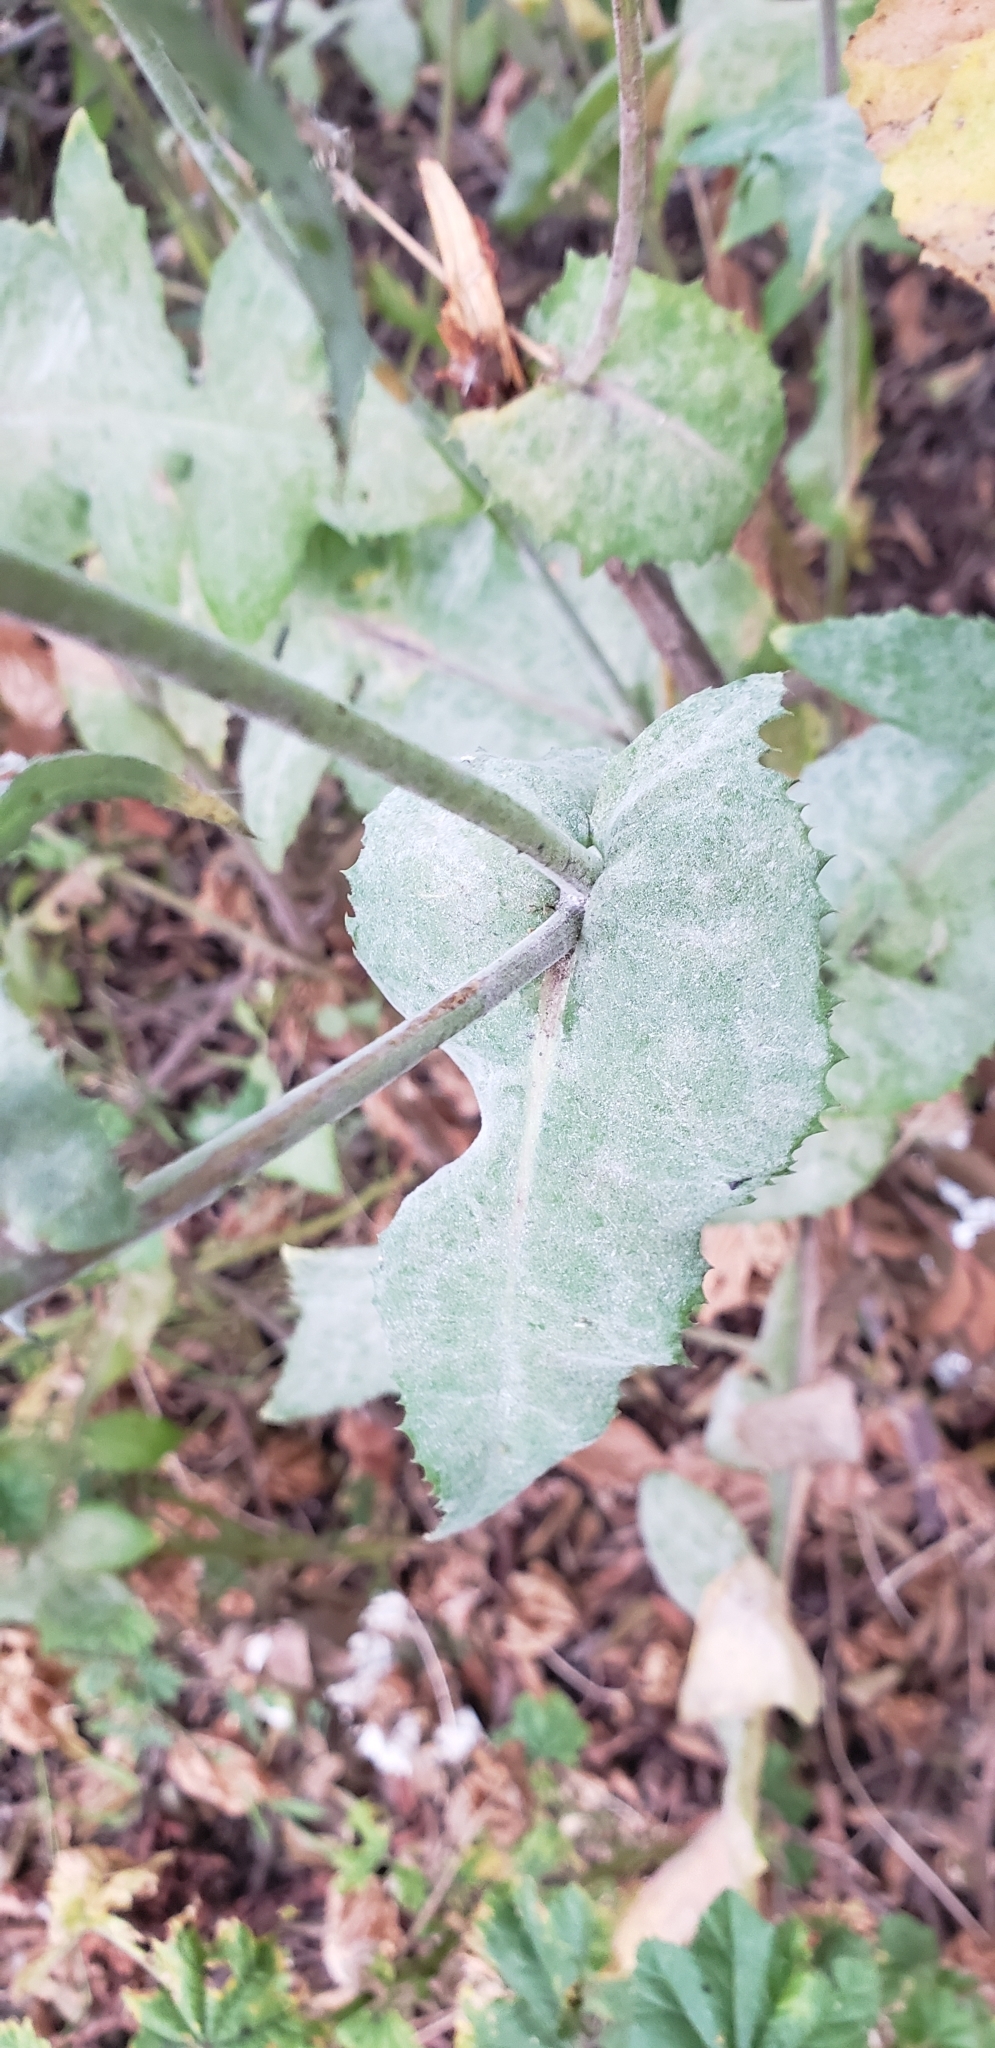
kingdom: Plantae
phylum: Tracheophyta
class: Magnoliopsida
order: Asterales
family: Asteraceae
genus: Sonchus
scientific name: Sonchus oleraceus
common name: Common sowthistle
